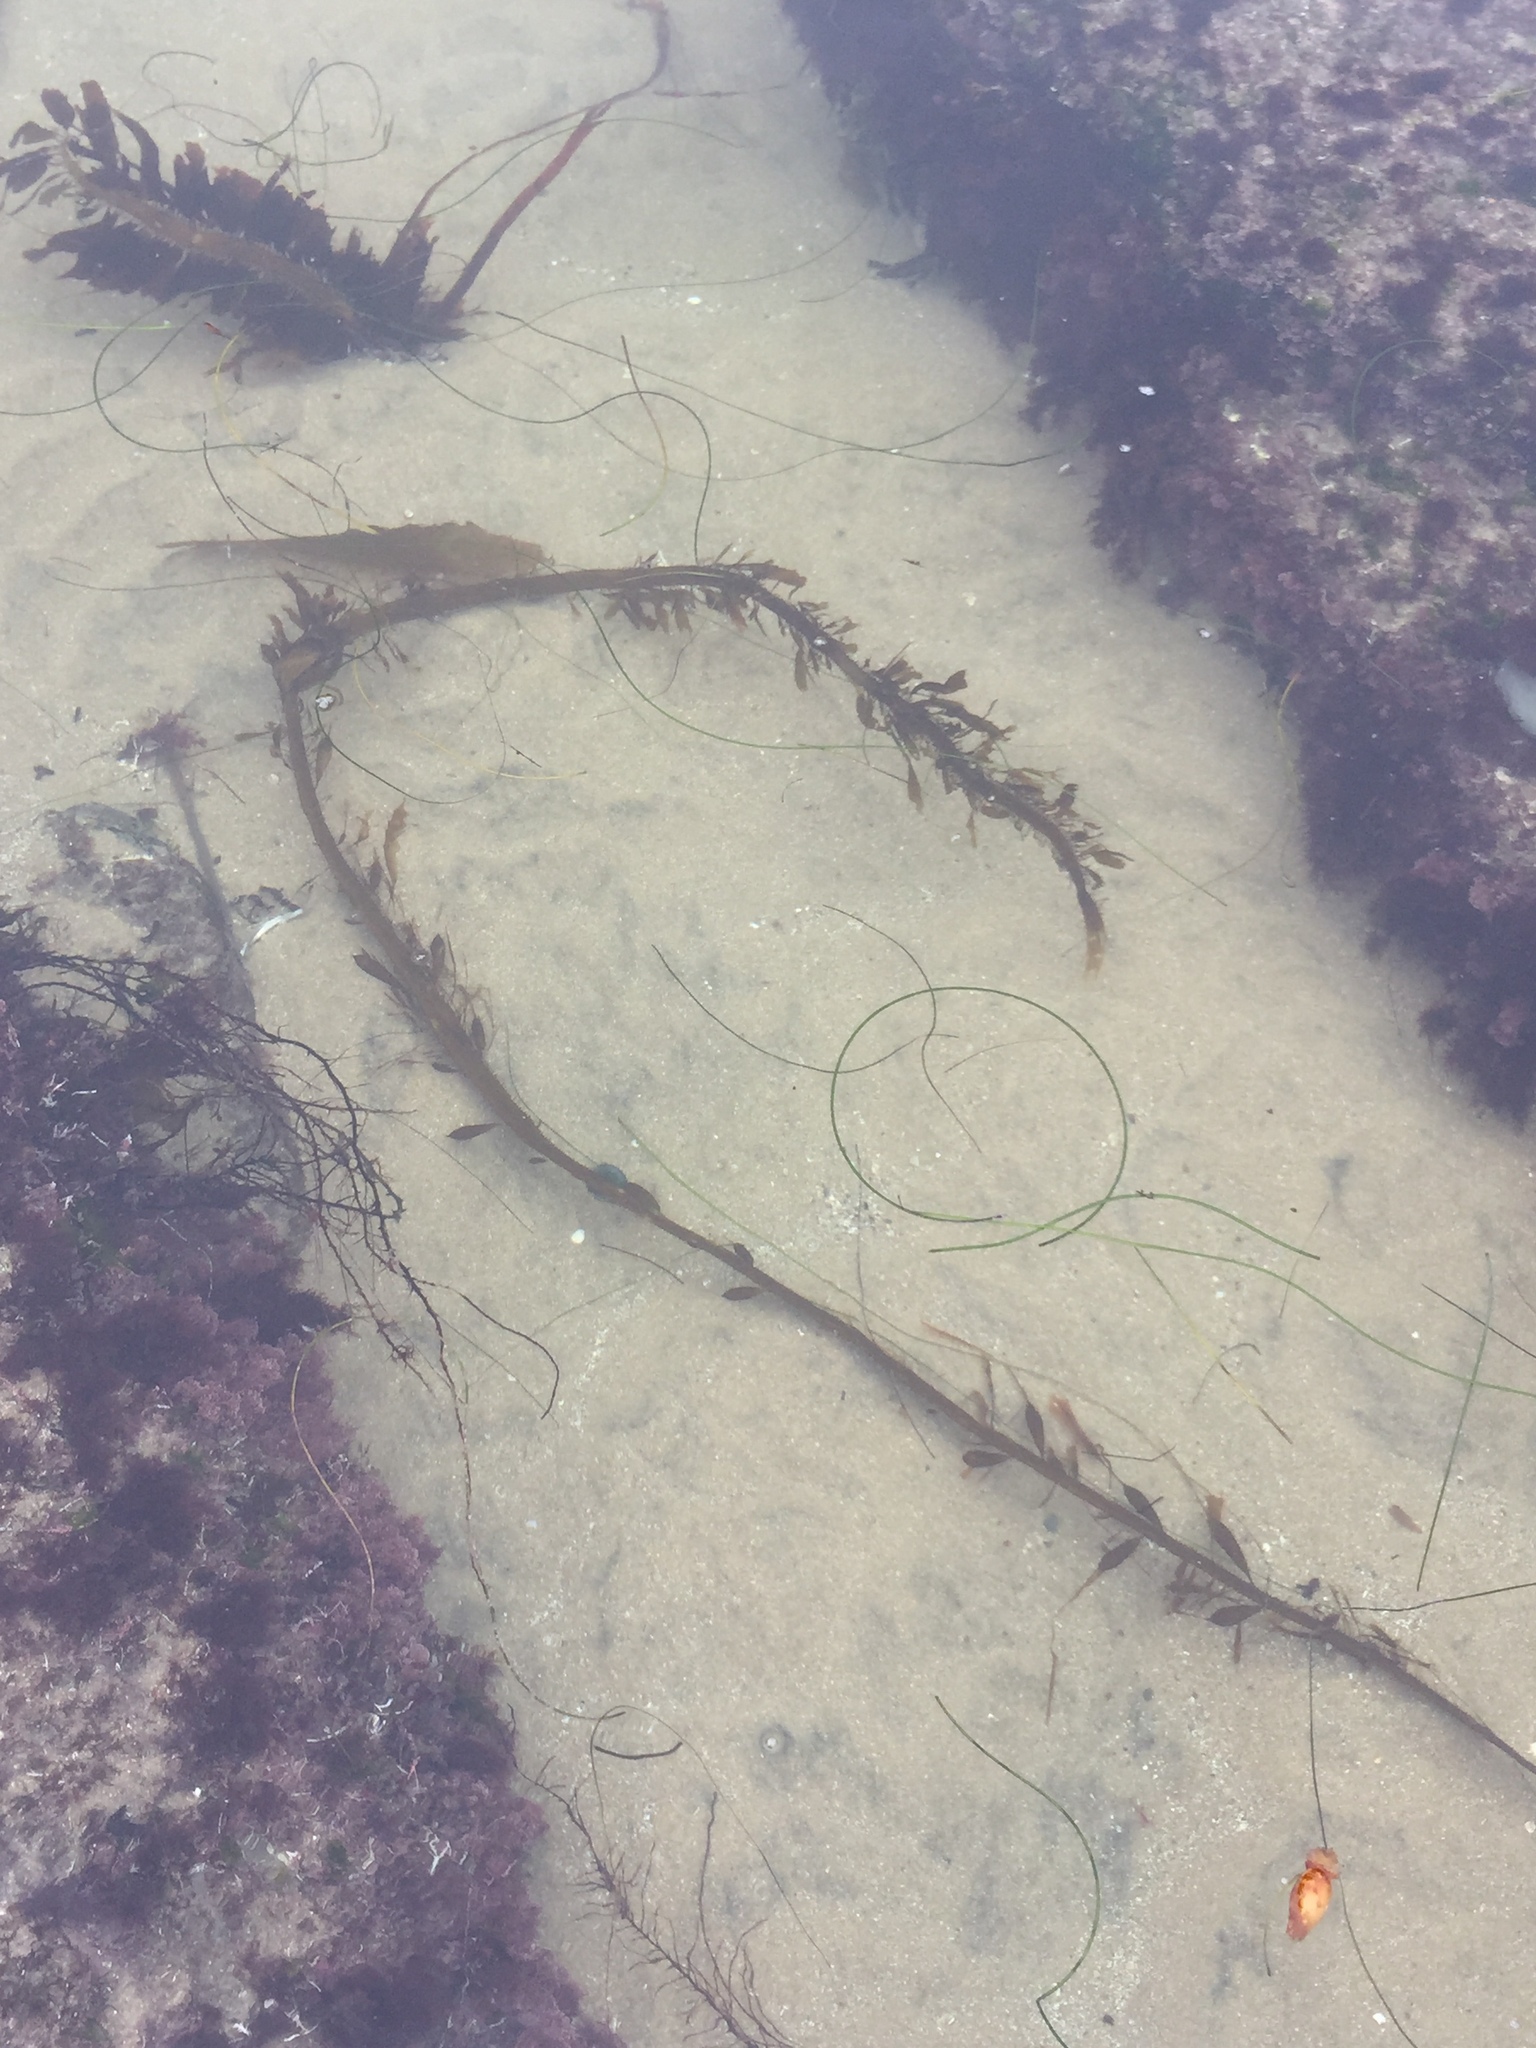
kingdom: Chromista
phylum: Ochrophyta
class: Phaeophyceae
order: Laminariales
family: Lessoniaceae
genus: Egregia
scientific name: Egregia menziesii
